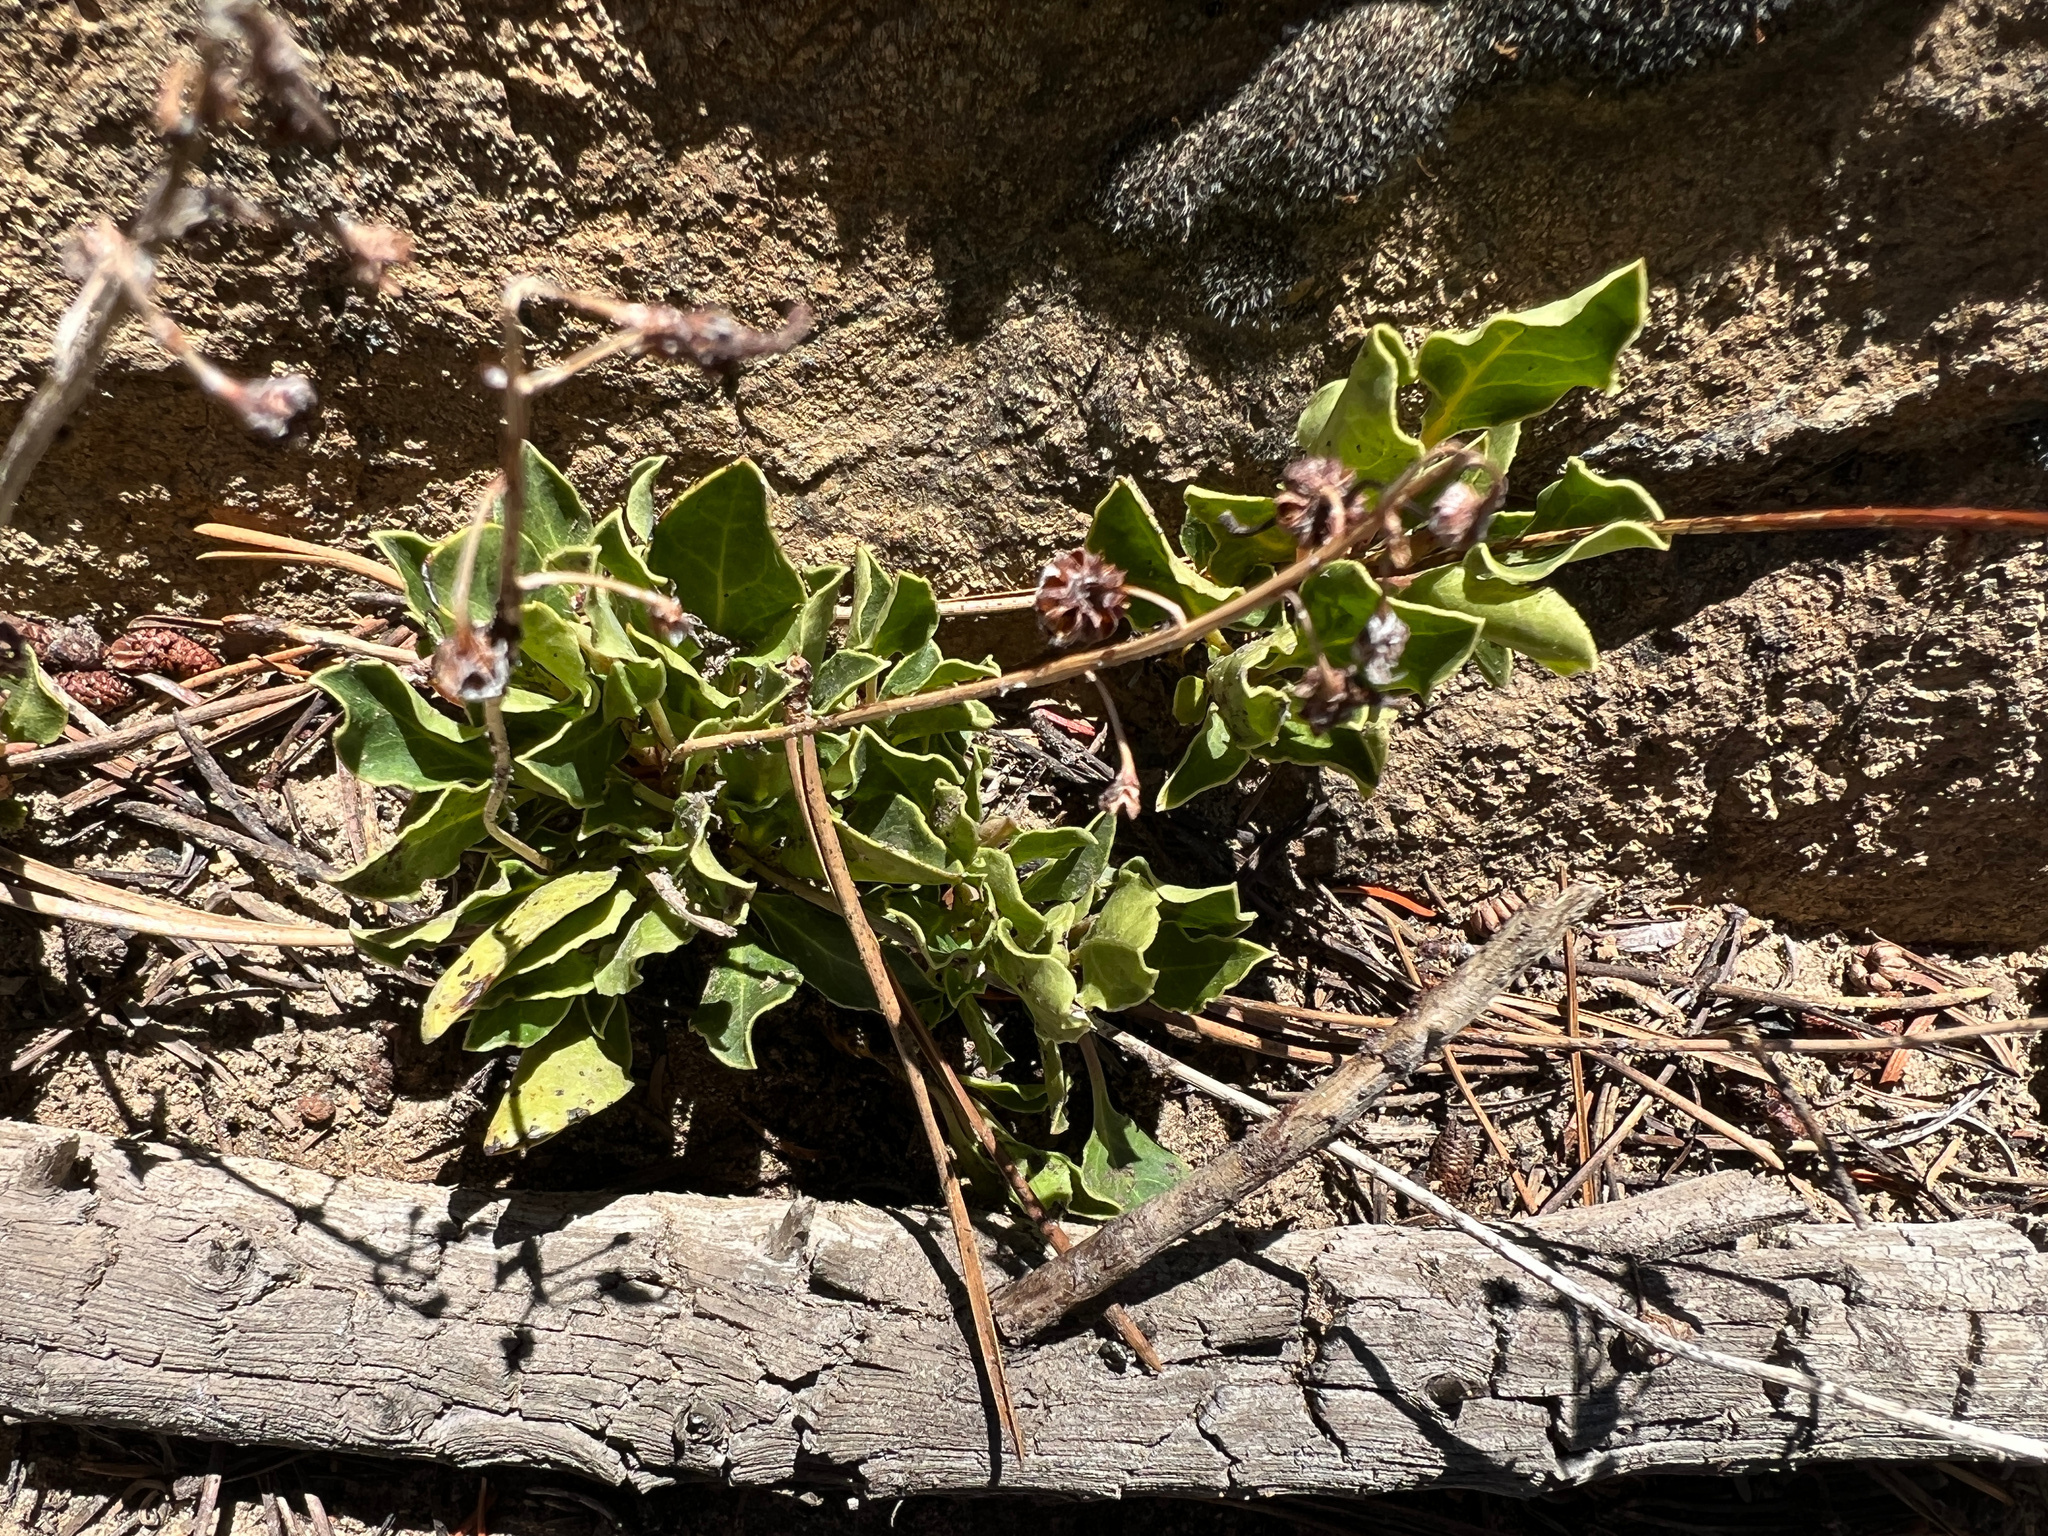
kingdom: Plantae
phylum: Tracheophyta
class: Magnoliopsida
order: Ericales
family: Ericaceae
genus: Pyrola
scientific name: Pyrola dentata
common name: Tooth-leaved wintergreen
